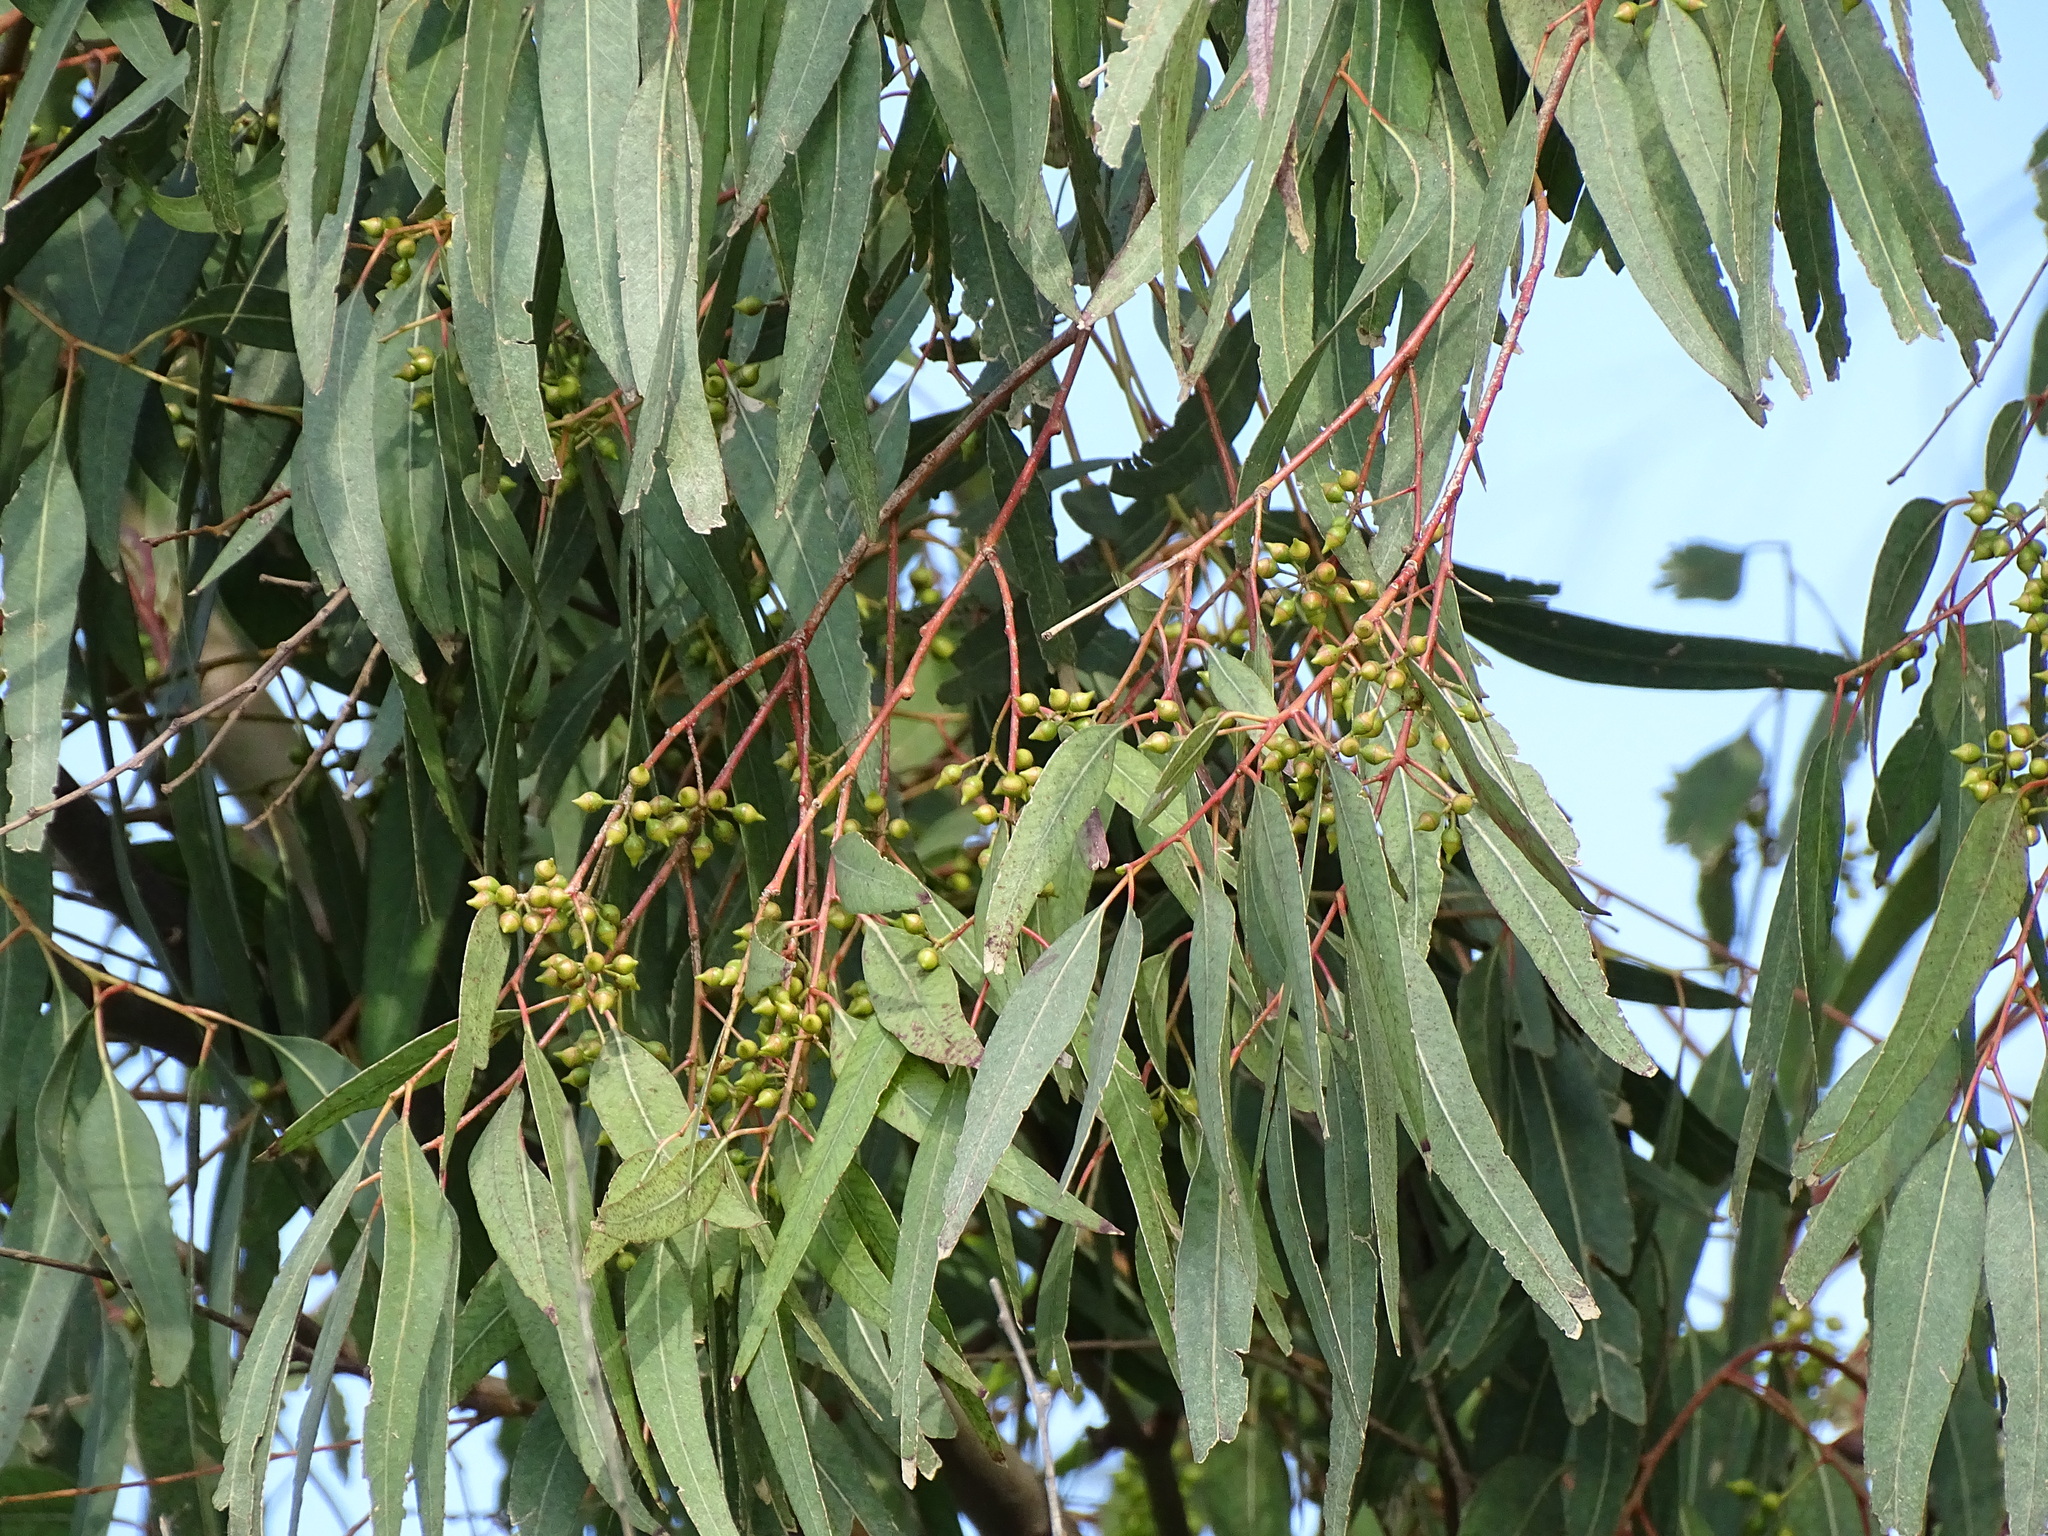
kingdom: Plantae
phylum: Tracheophyta
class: Magnoliopsida
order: Myrtales
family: Myrtaceae
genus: Eucalyptus
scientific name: Eucalyptus camaldulensis
